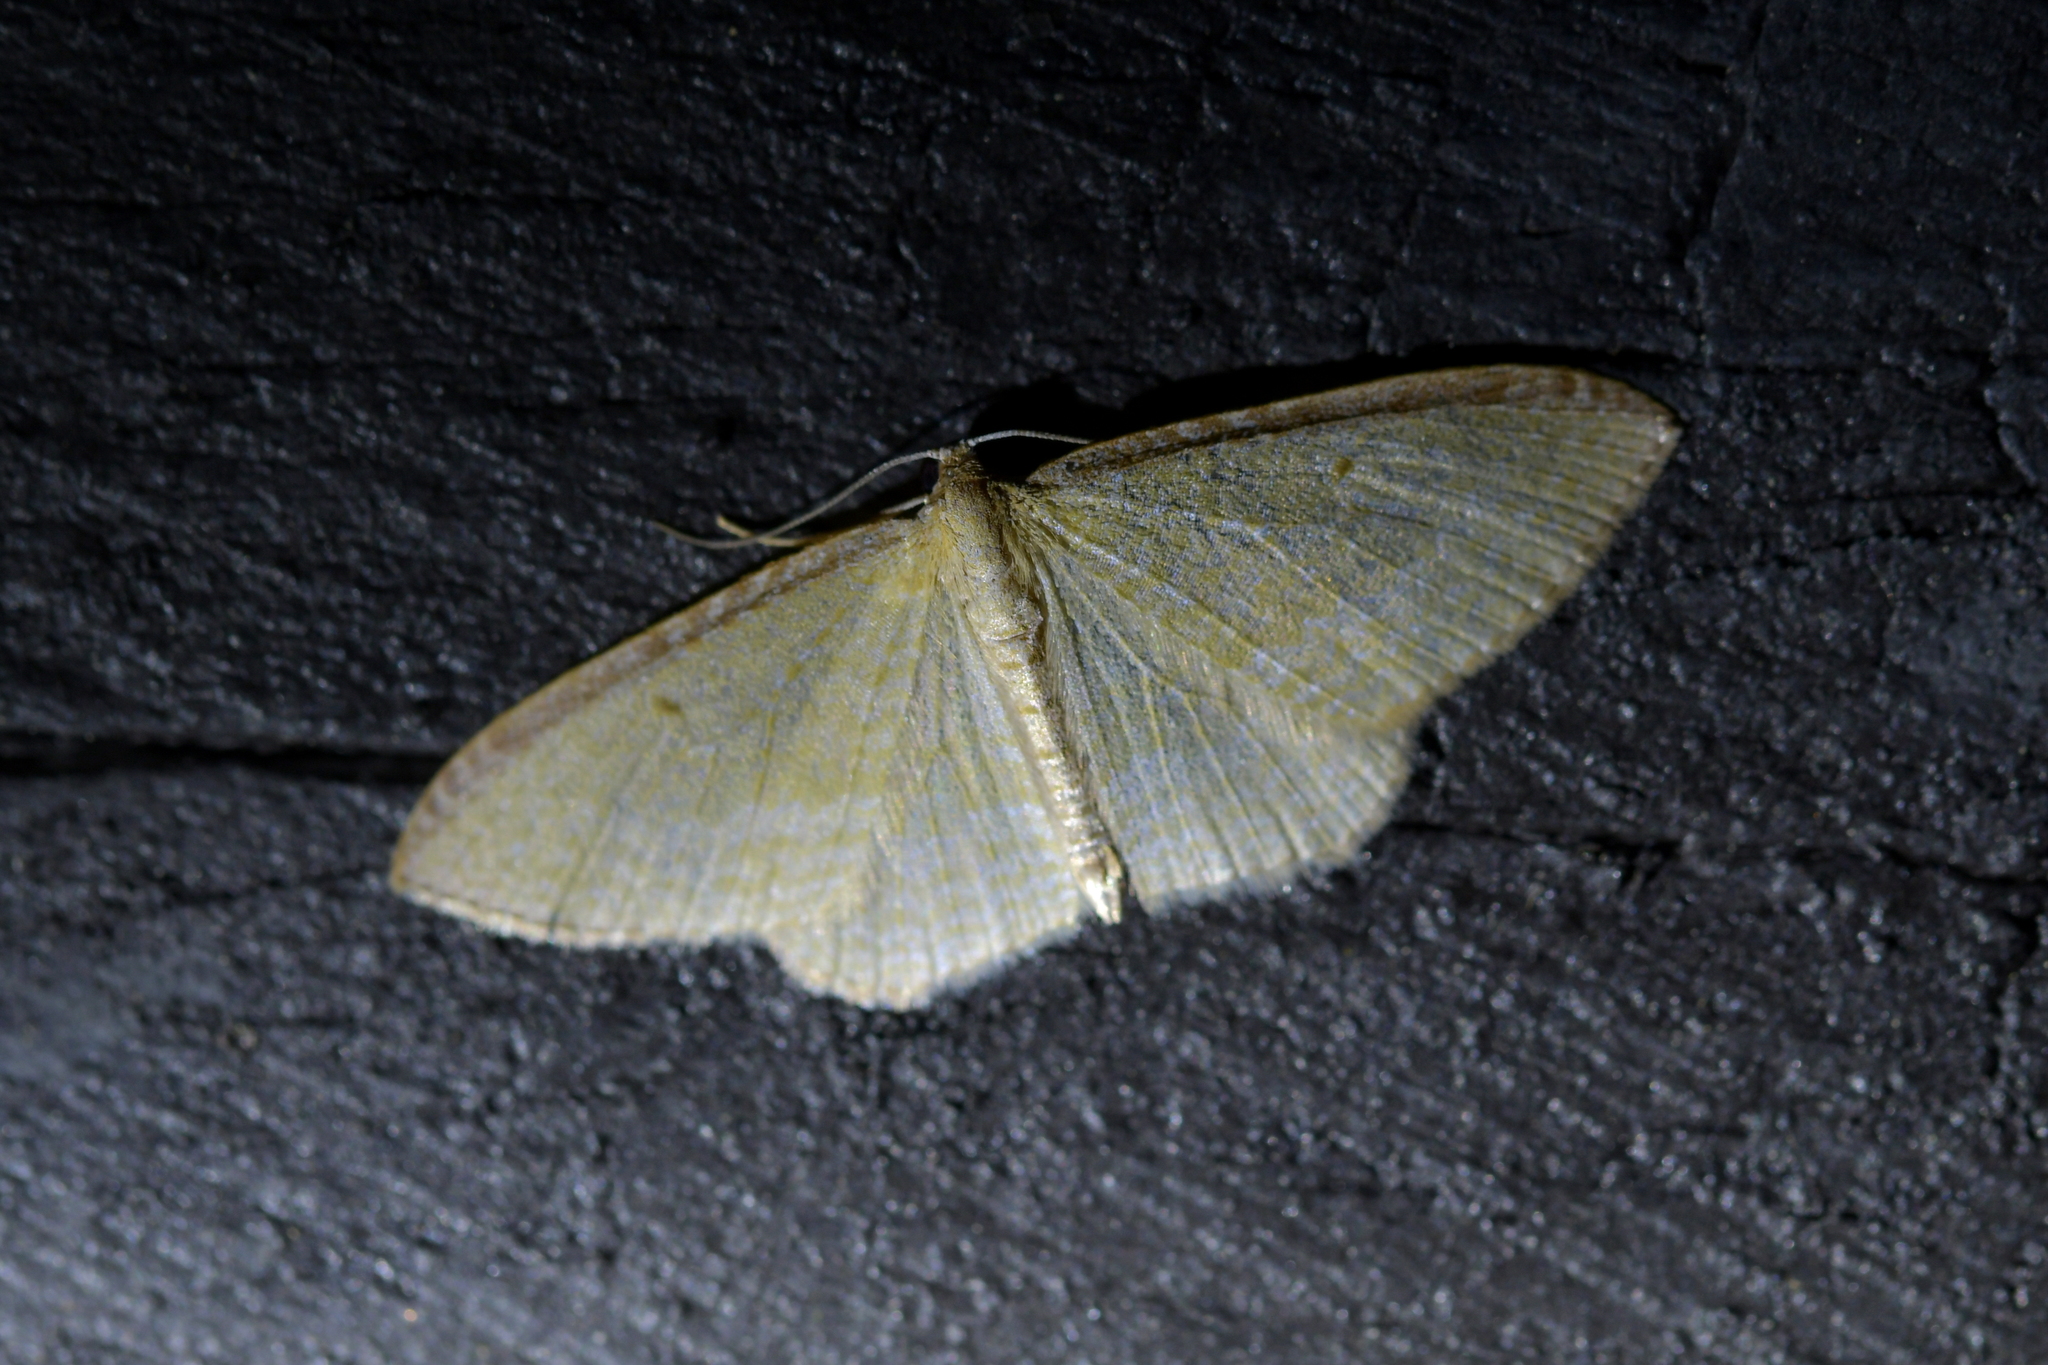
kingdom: Animalia
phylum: Arthropoda
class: Insecta
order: Lepidoptera
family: Geometridae
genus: Poecilasthena
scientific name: Poecilasthena pulchraria
